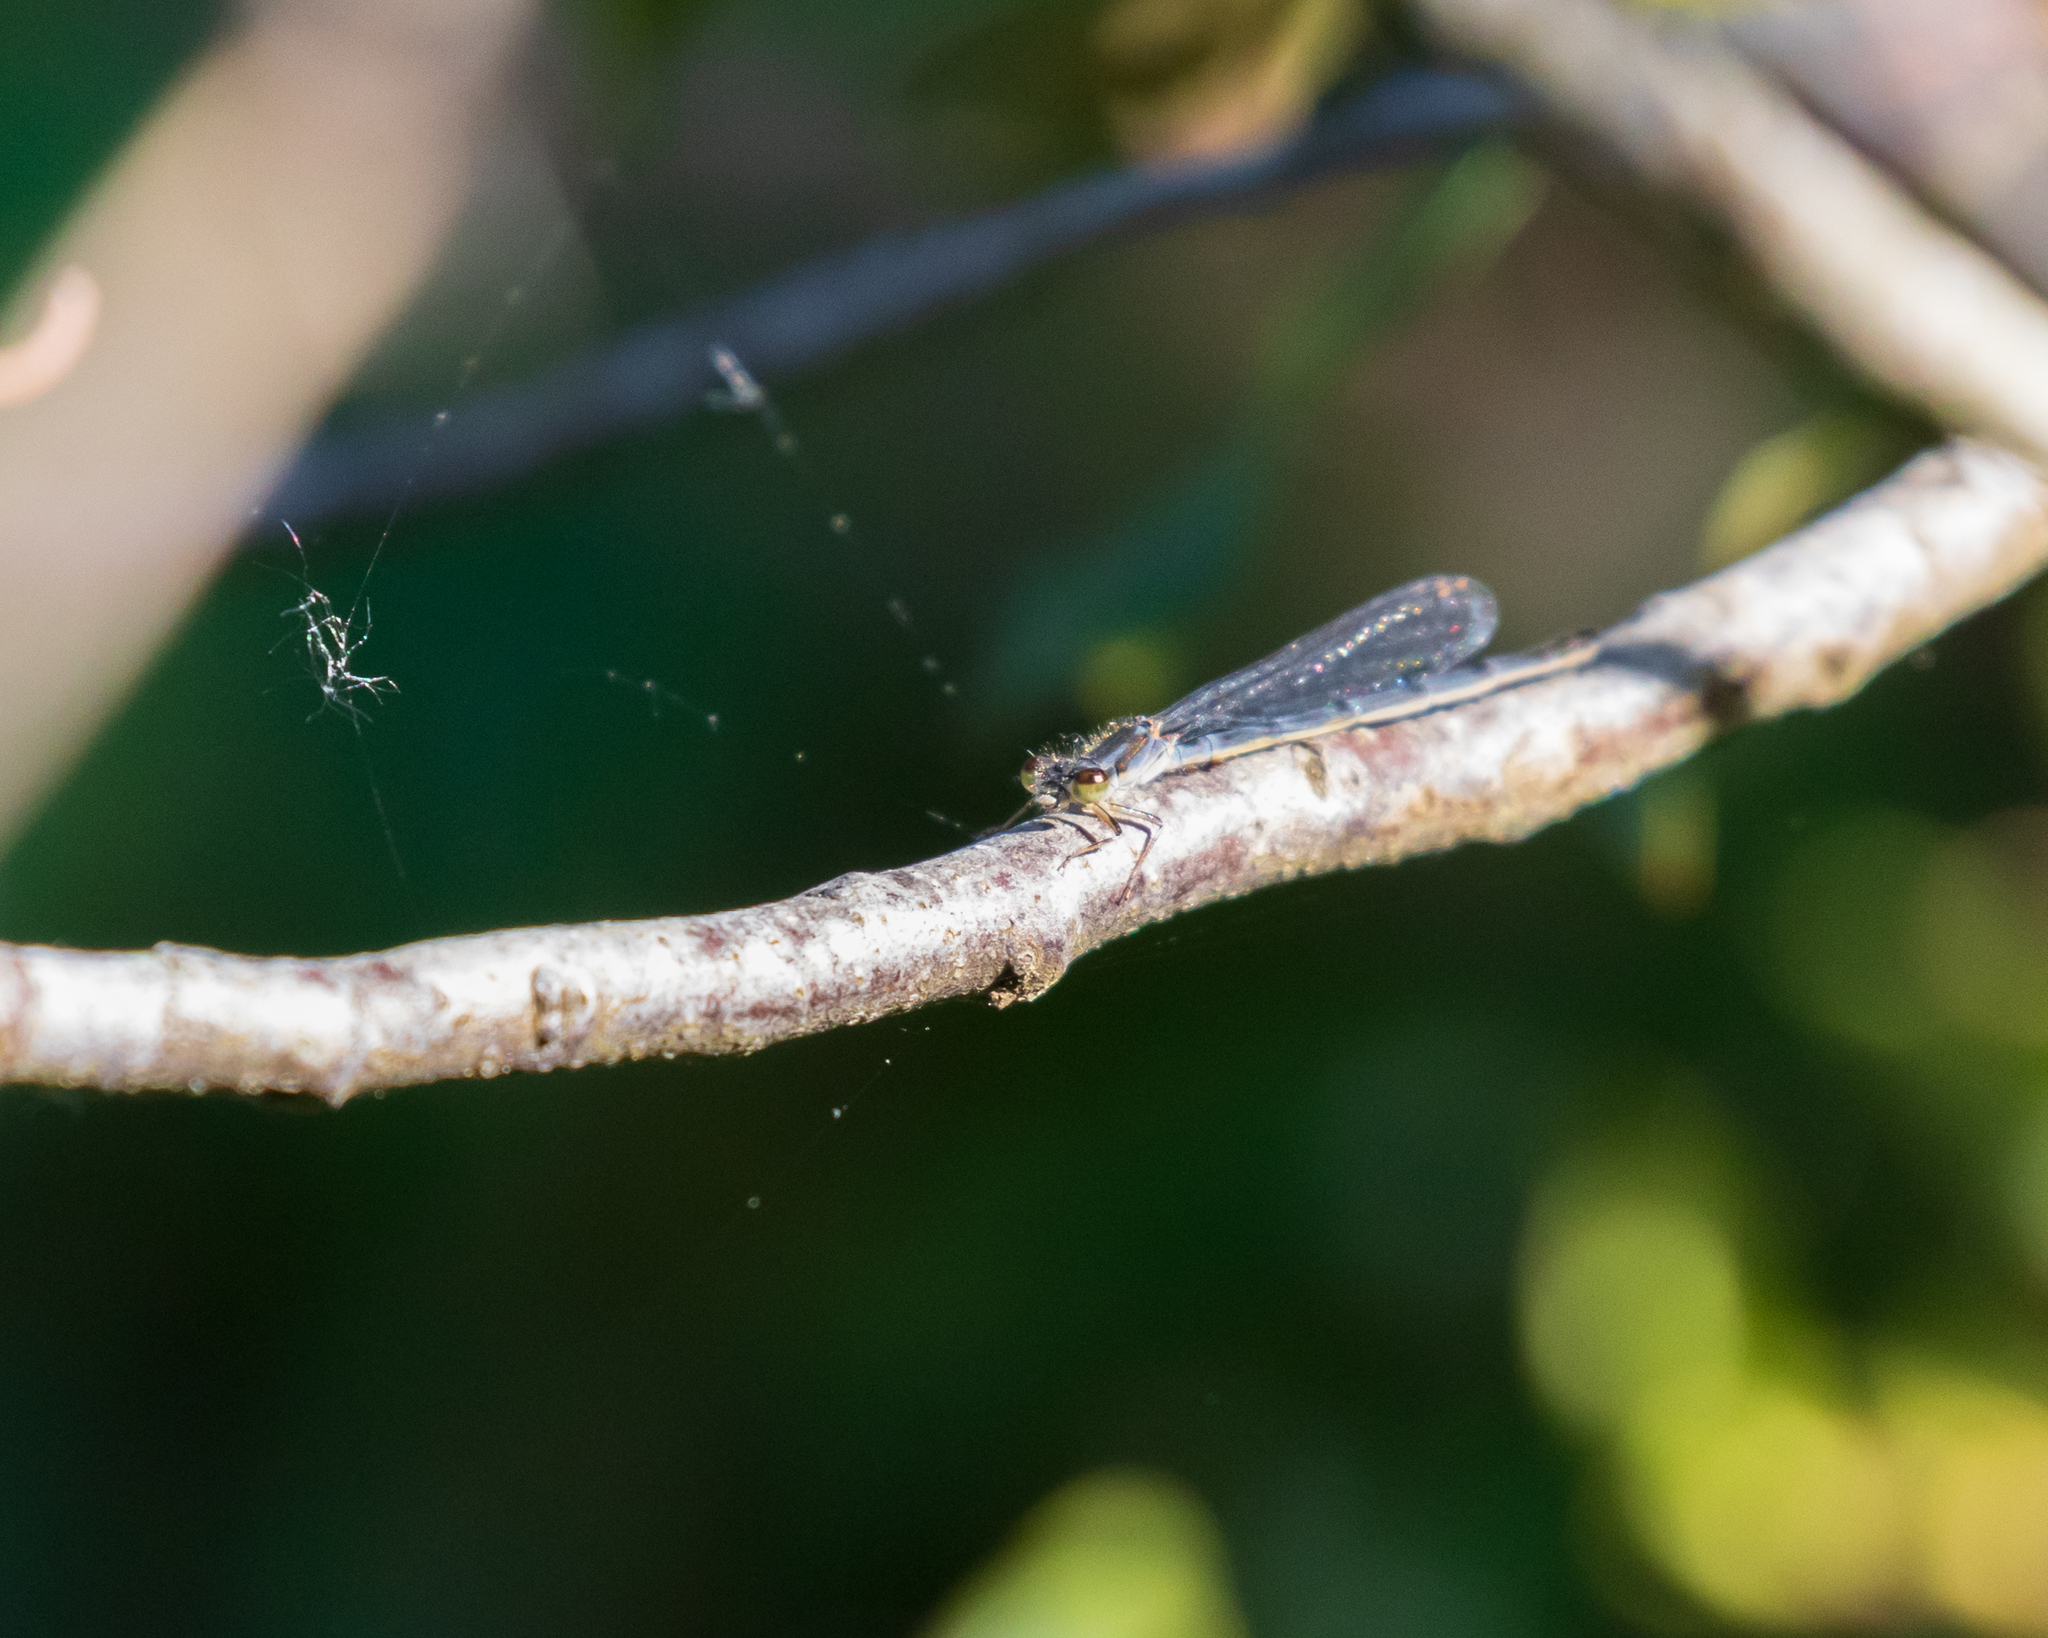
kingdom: Animalia
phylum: Arthropoda
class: Insecta
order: Odonata
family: Coenagrionidae
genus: Ischnura
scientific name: Ischnura posita
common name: Fragile forktail
